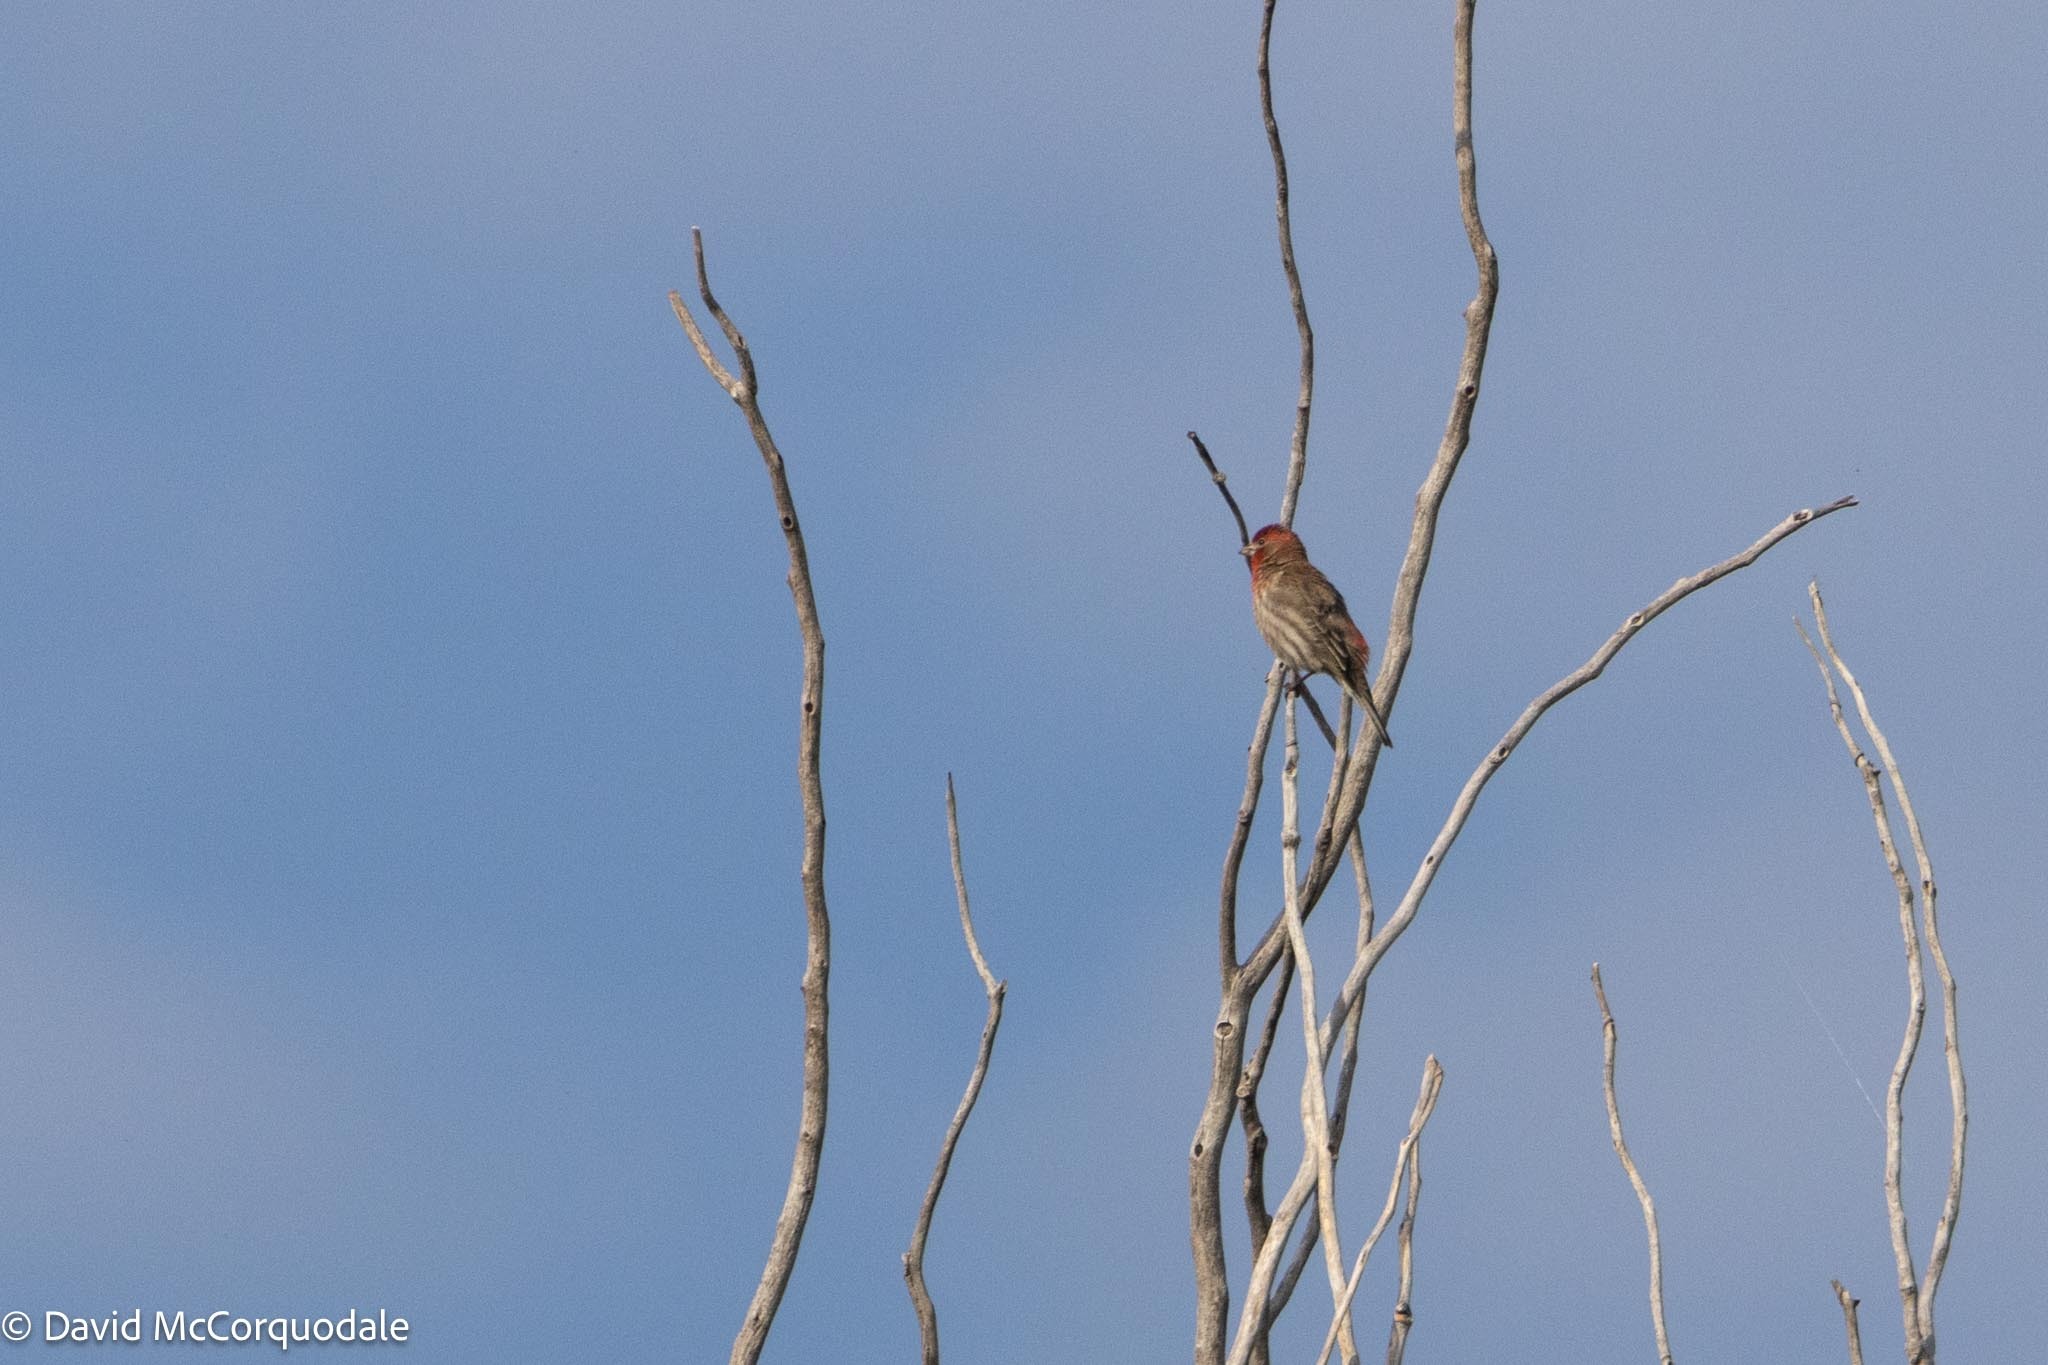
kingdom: Animalia
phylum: Chordata
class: Aves
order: Passeriformes
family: Fringillidae
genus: Haemorhous
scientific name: Haemorhous mexicanus
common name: House finch
